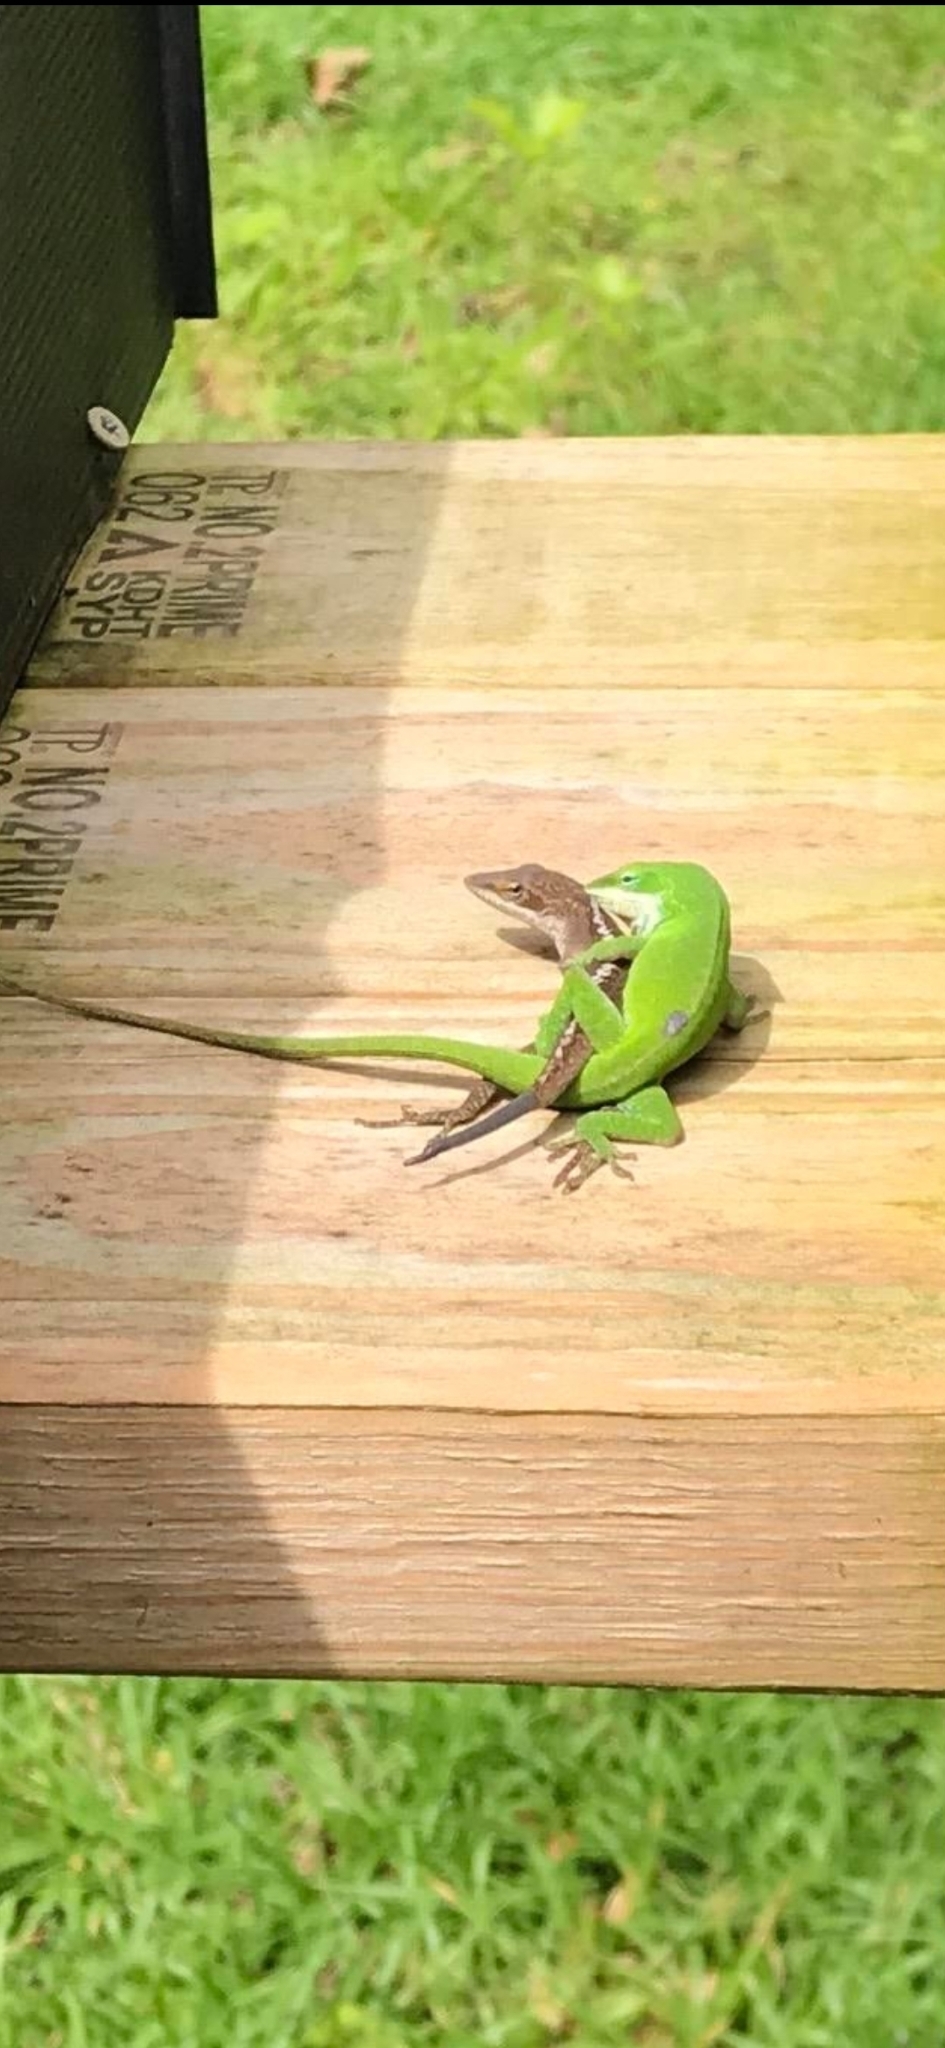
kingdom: Animalia
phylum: Chordata
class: Squamata
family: Dactyloidae
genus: Anolis
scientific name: Anolis carolinensis
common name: Green anole
